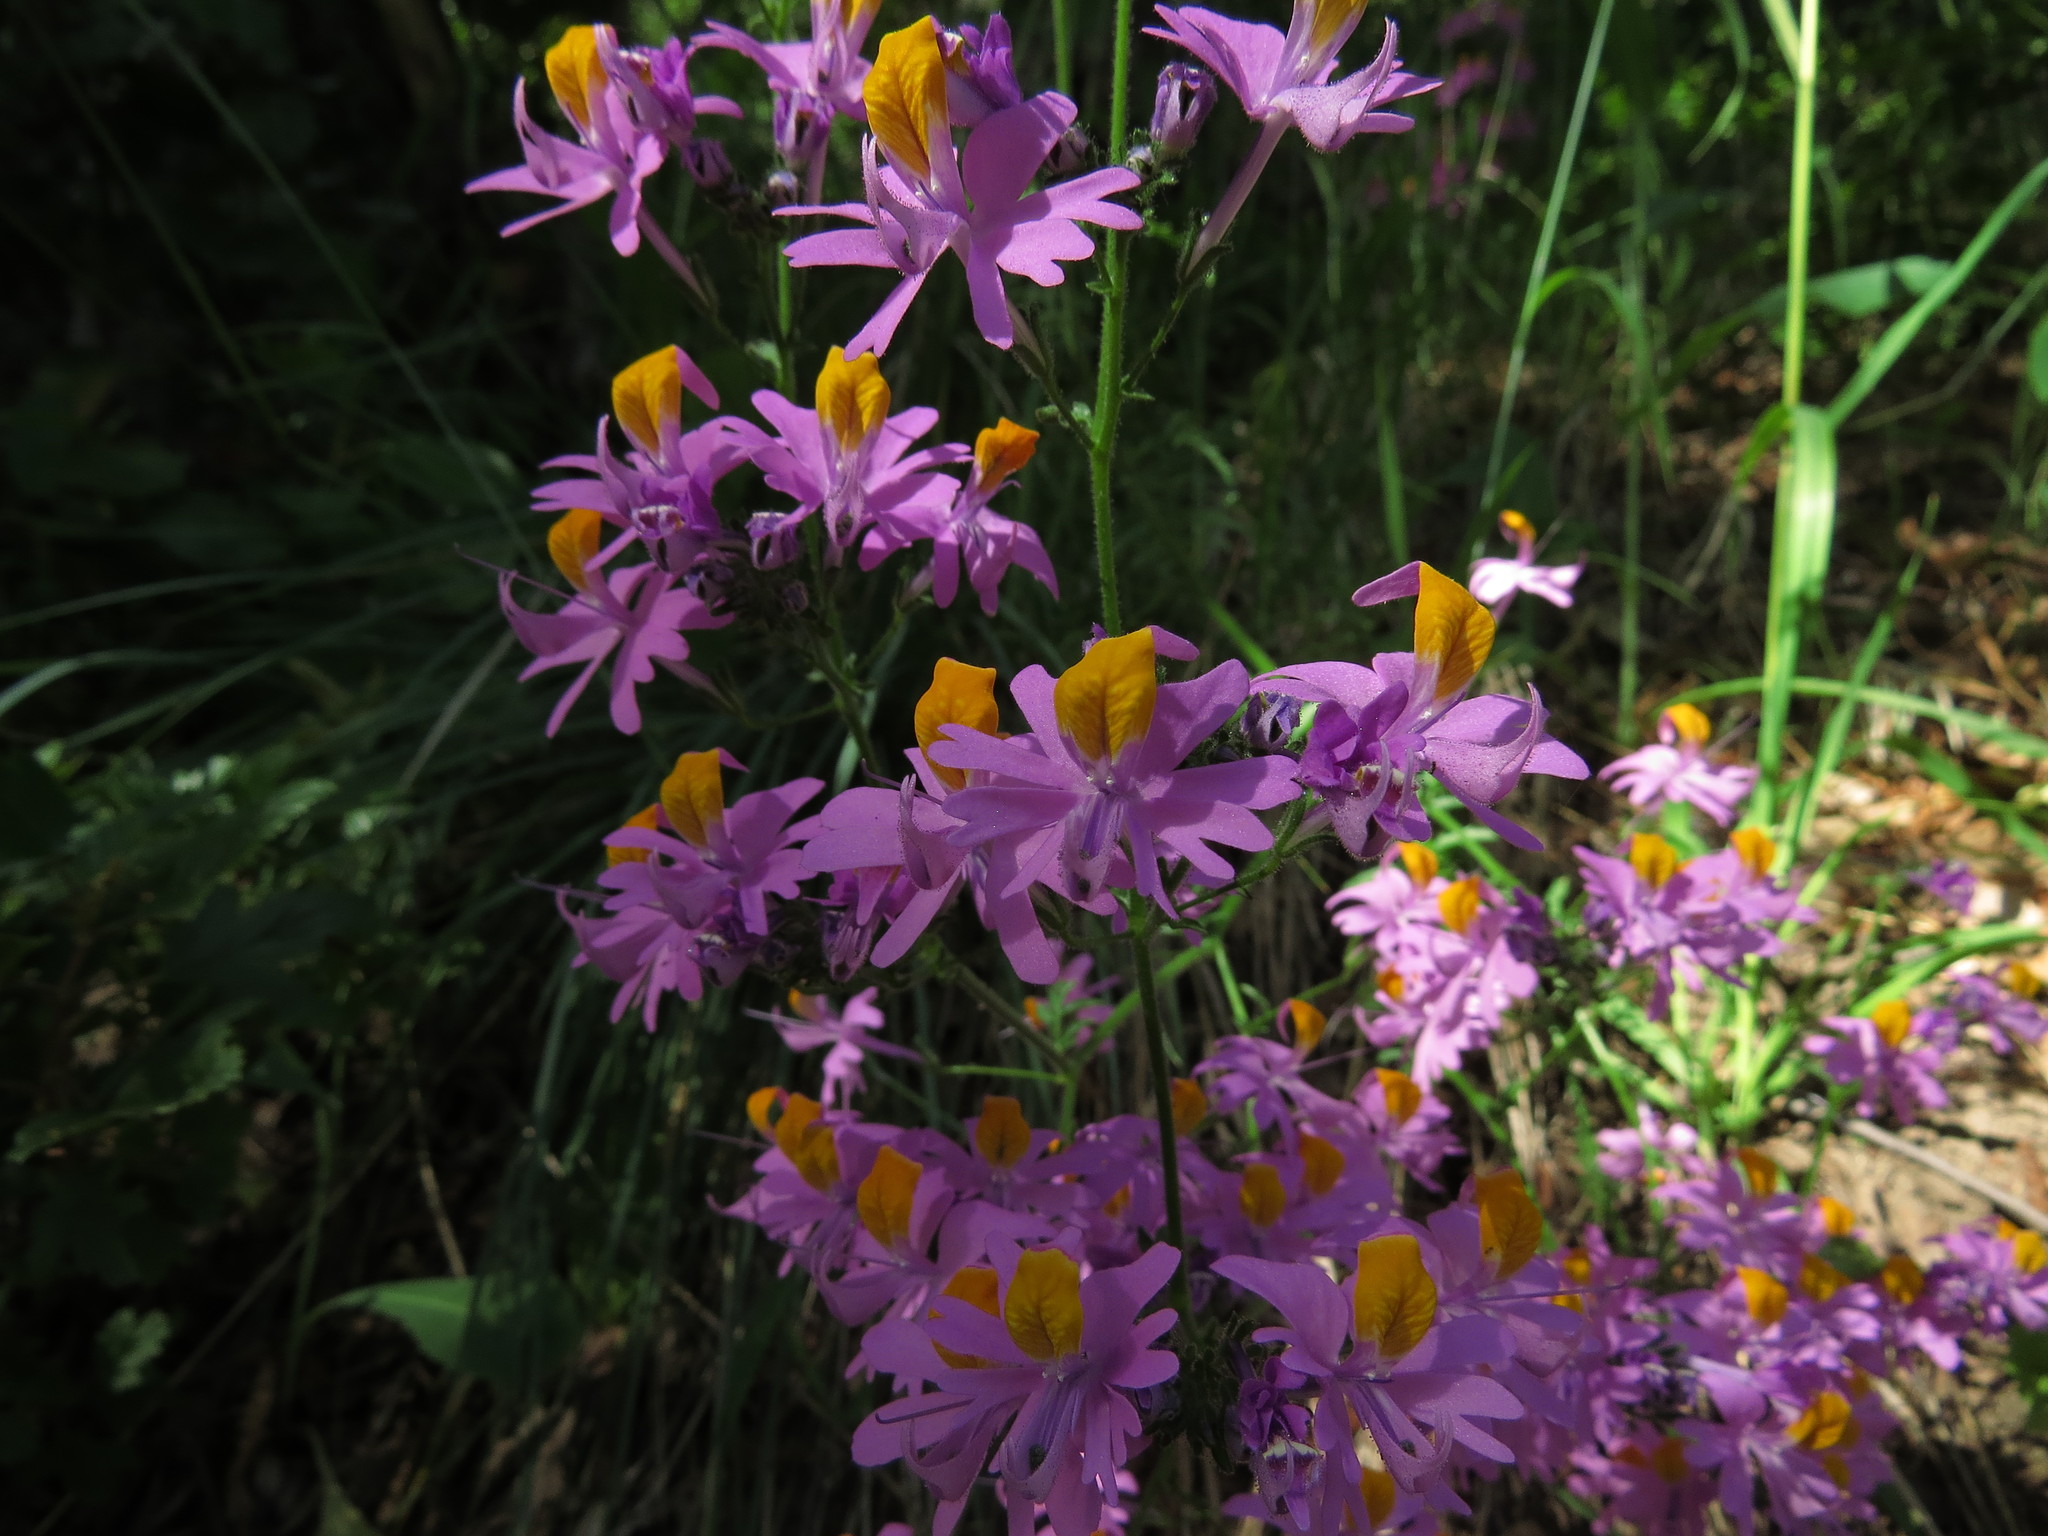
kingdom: Plantae
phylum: Tracheophyta
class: Magnoliopsida
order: Solanales
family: Solanaceae
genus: Schizanthus
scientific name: Schizanthus hookeri
